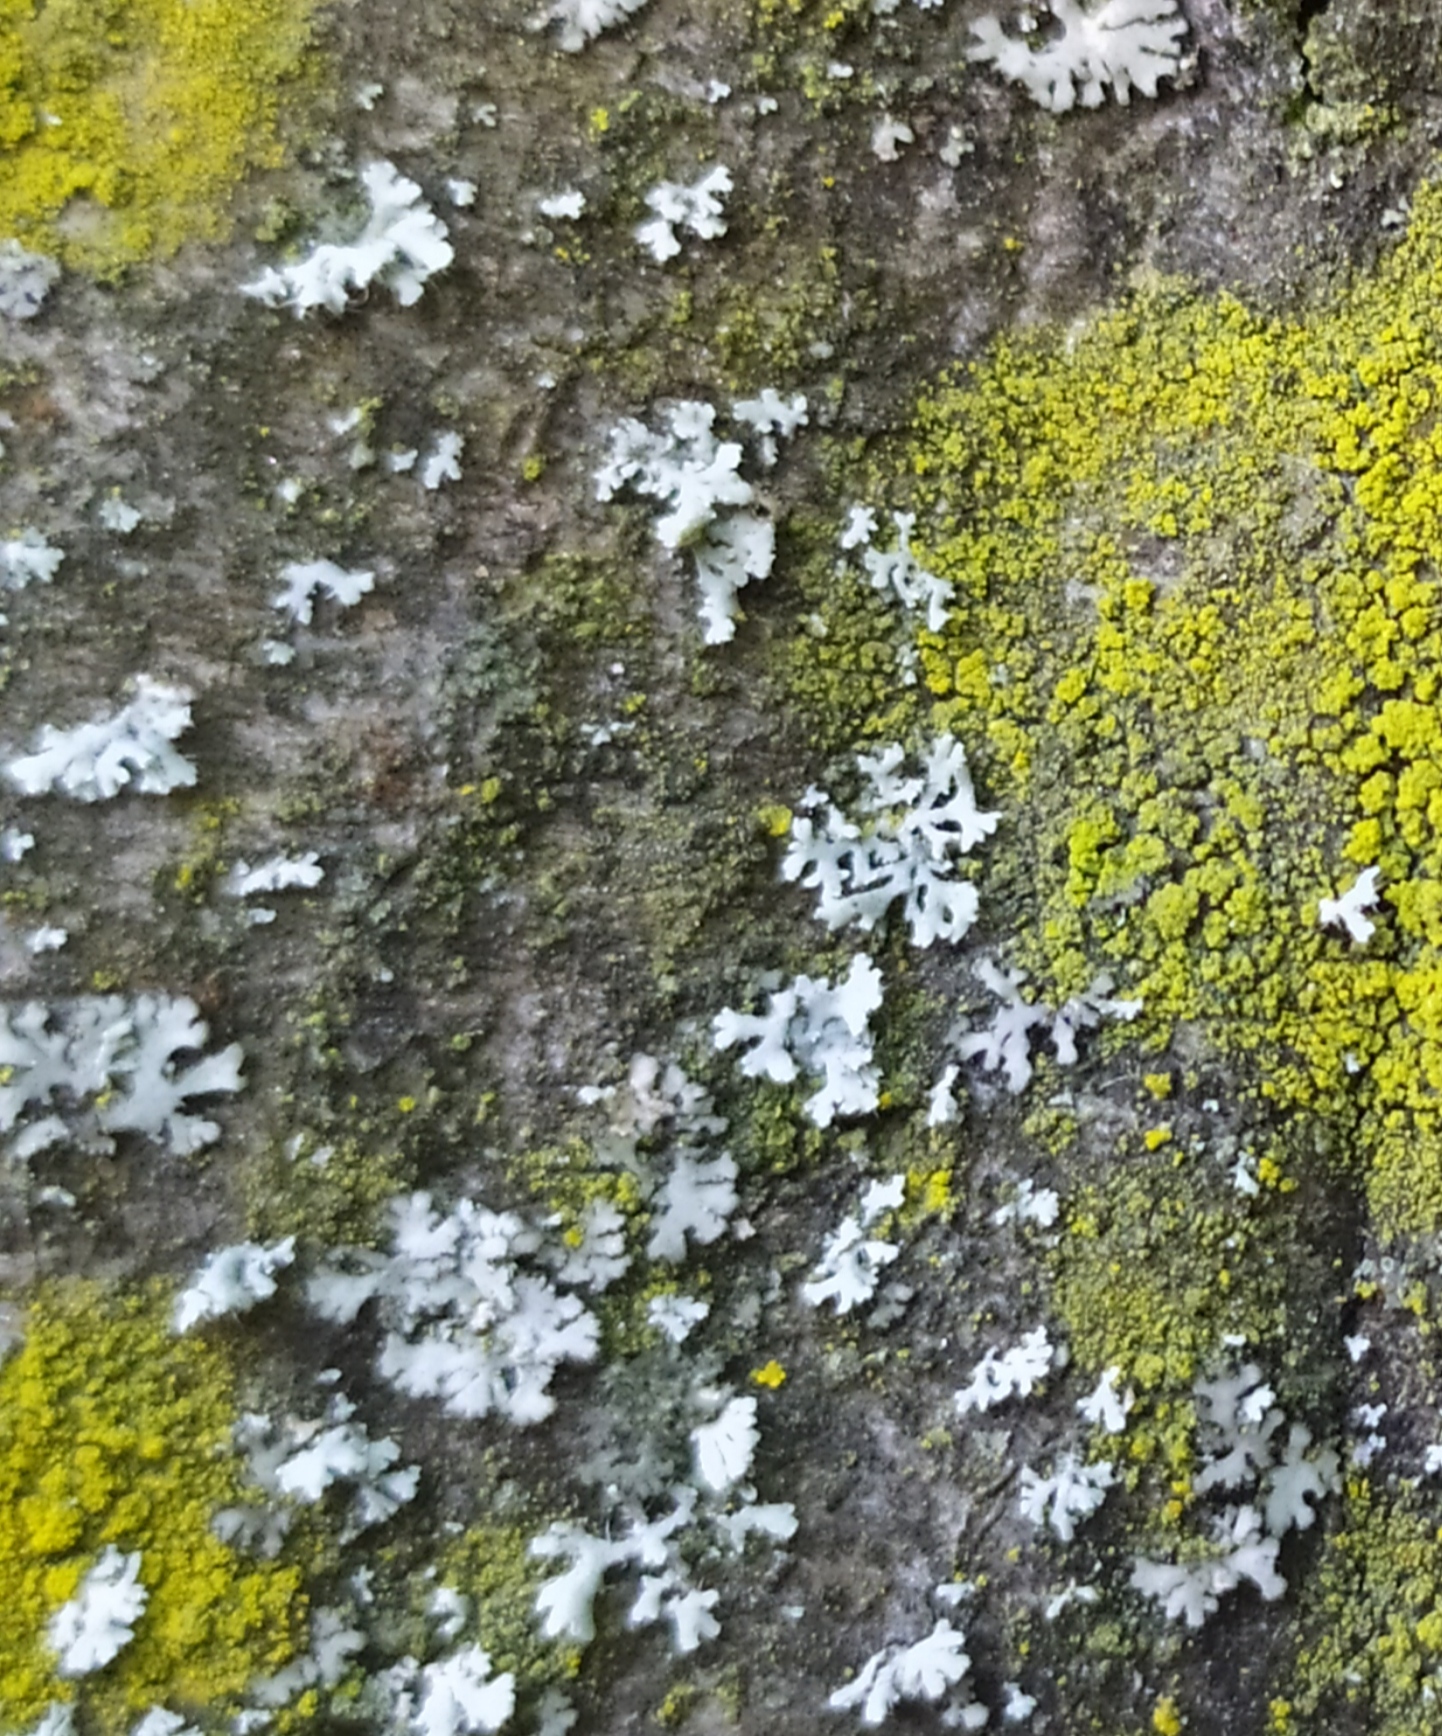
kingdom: Fungi
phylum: Ascomycota
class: Lecanoromycetes
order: Caliciales
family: Physciaceae
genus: Physcia
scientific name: Physcia adscendens
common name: Hooded rosette lichen
